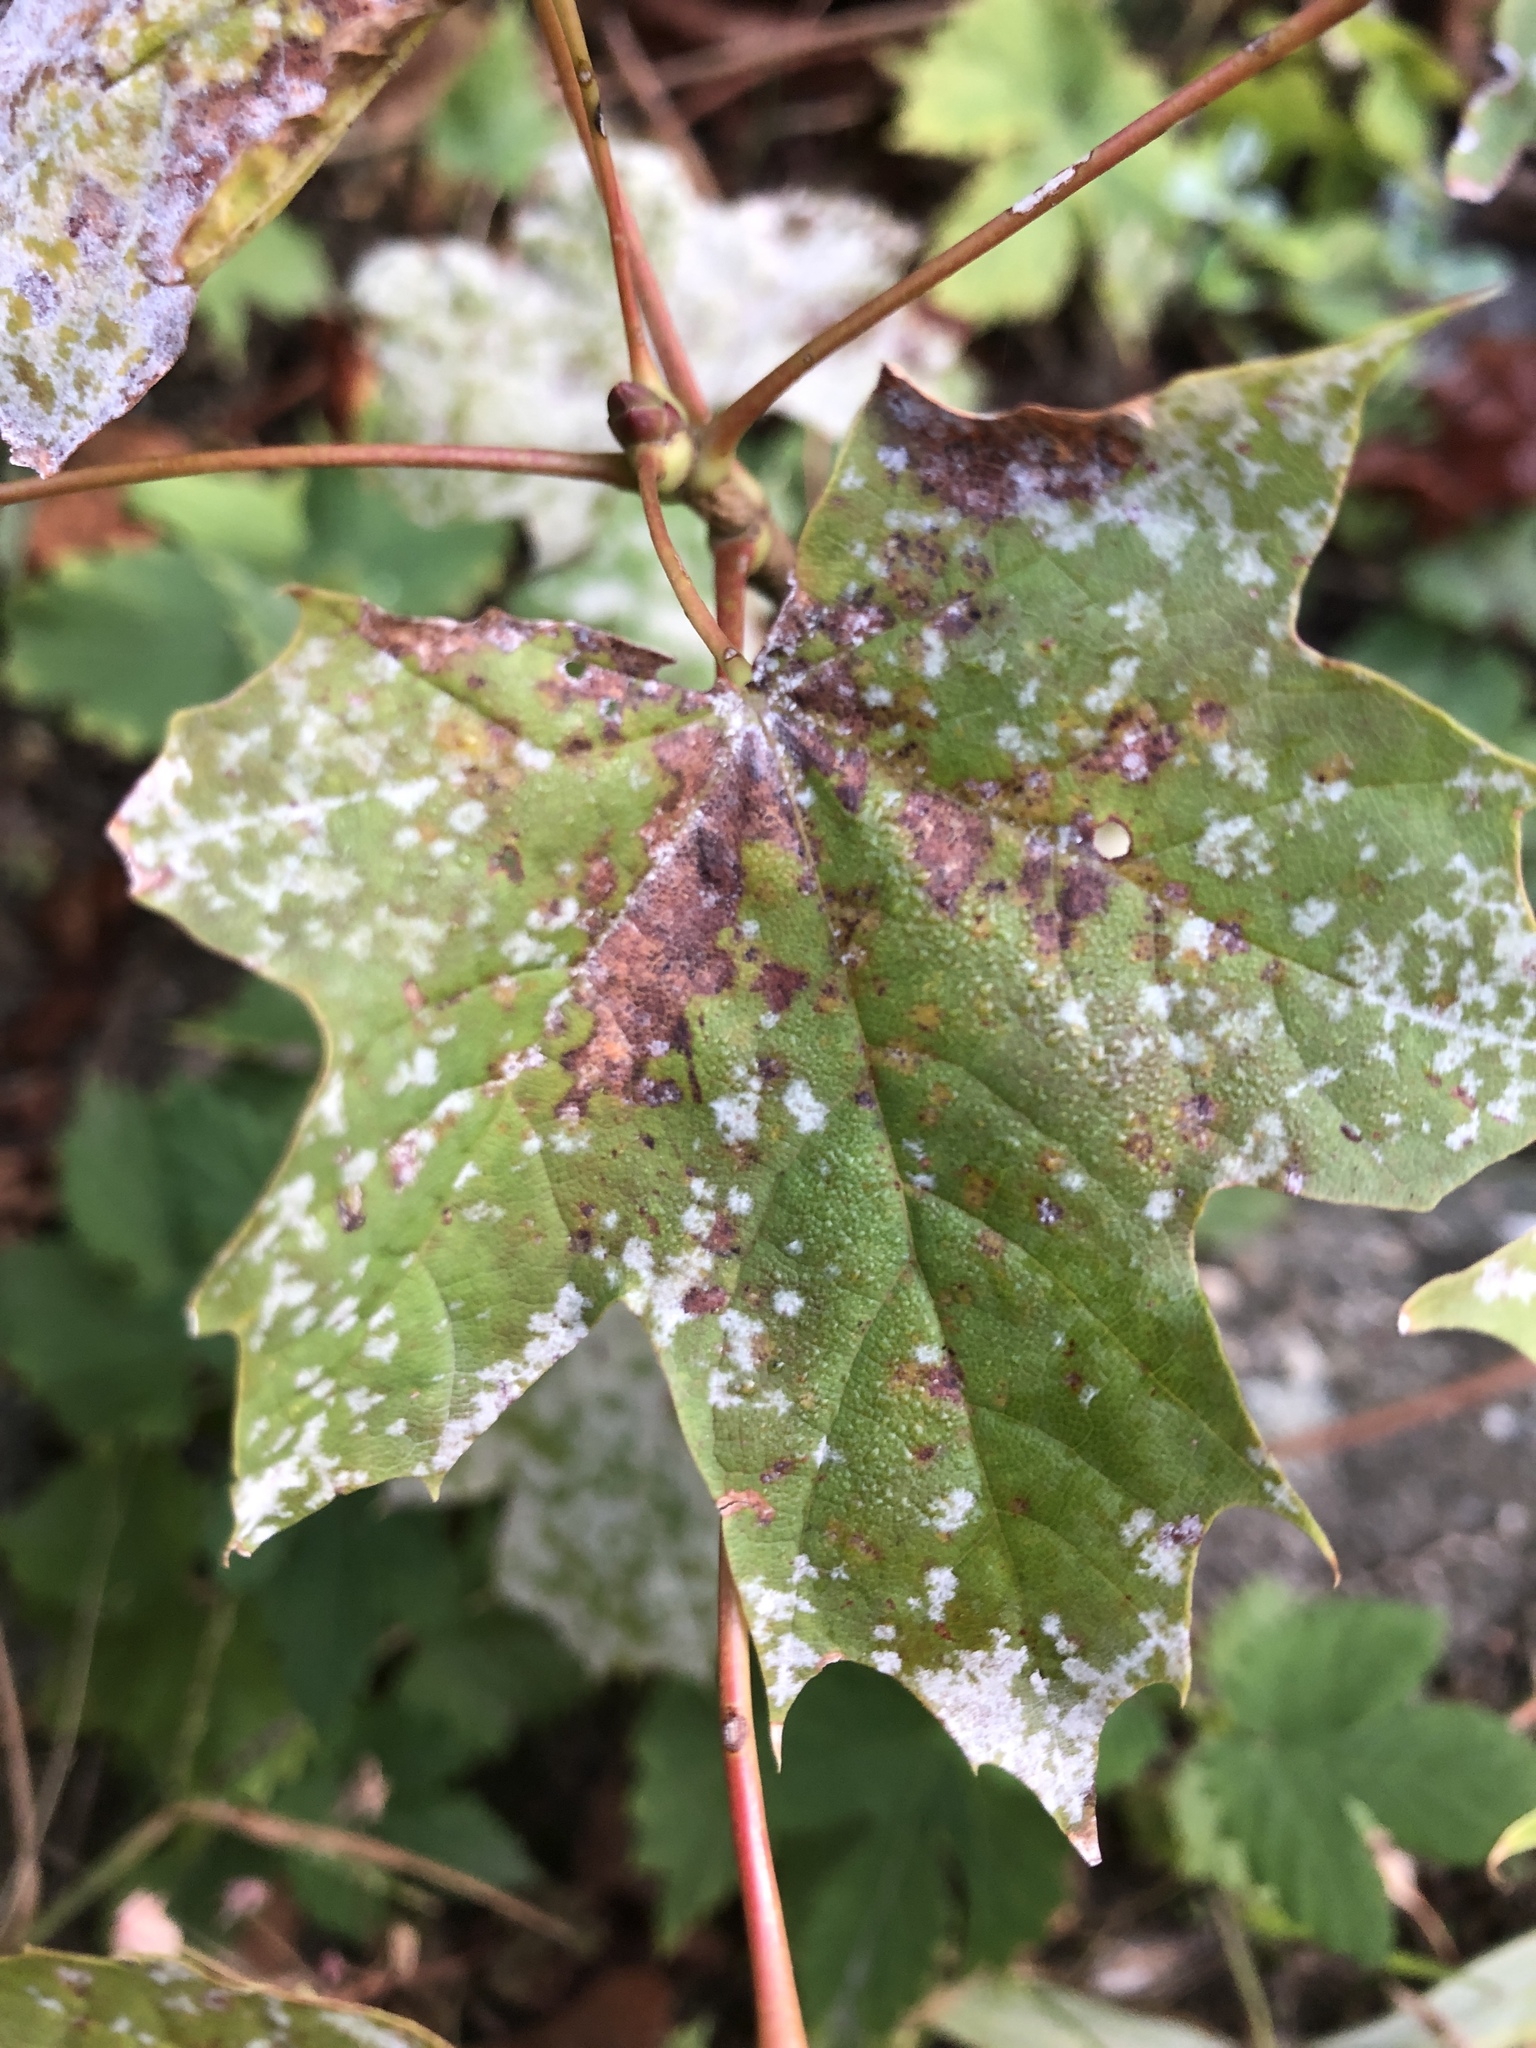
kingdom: Fungi
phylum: Ascomycota
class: Leotiomycetes
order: Helotiales
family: Erysiphaceae
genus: Sawadaea
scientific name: Sawadaea bicornis
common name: Maple mildew
